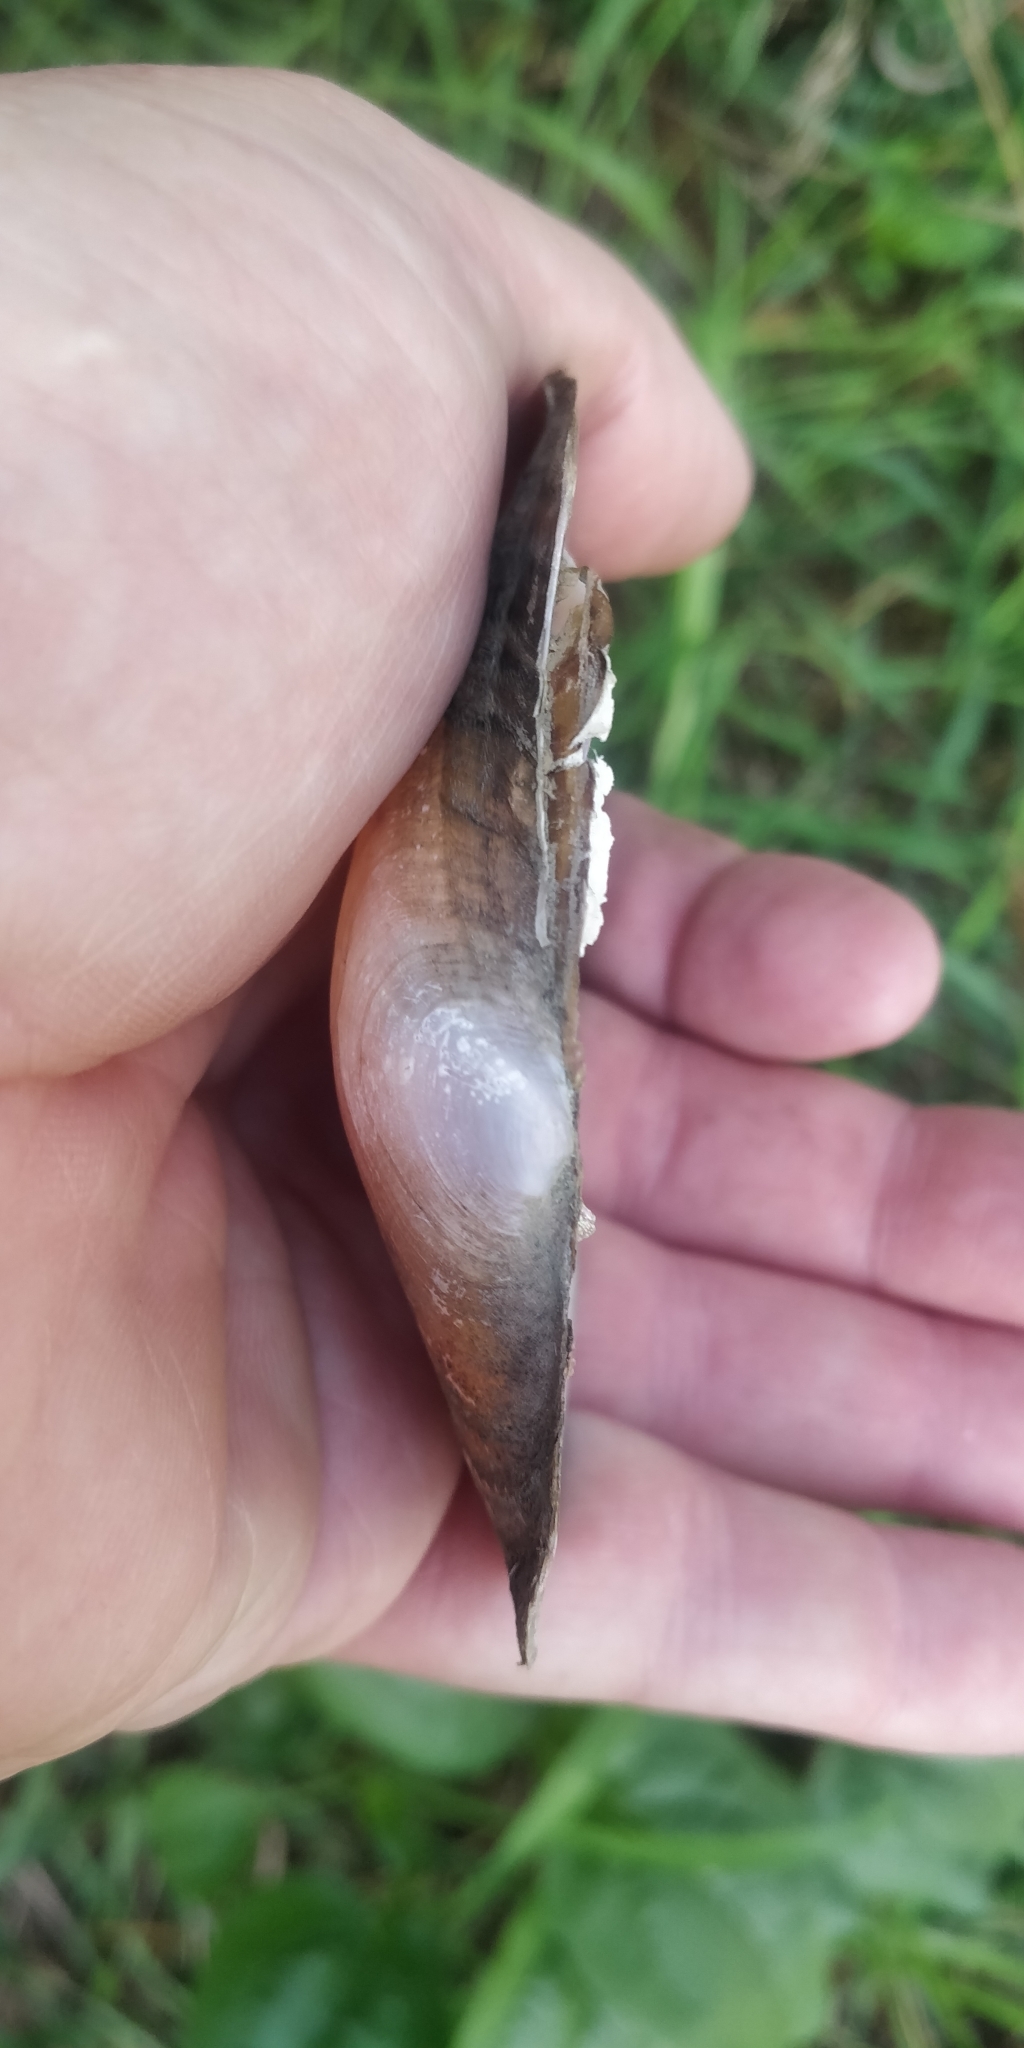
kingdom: Animalia
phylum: Mollusca
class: Bivalvia
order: Unionida
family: Unionidae
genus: Potamilus
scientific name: Potamilus alatus
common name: Pink heelsplitter
